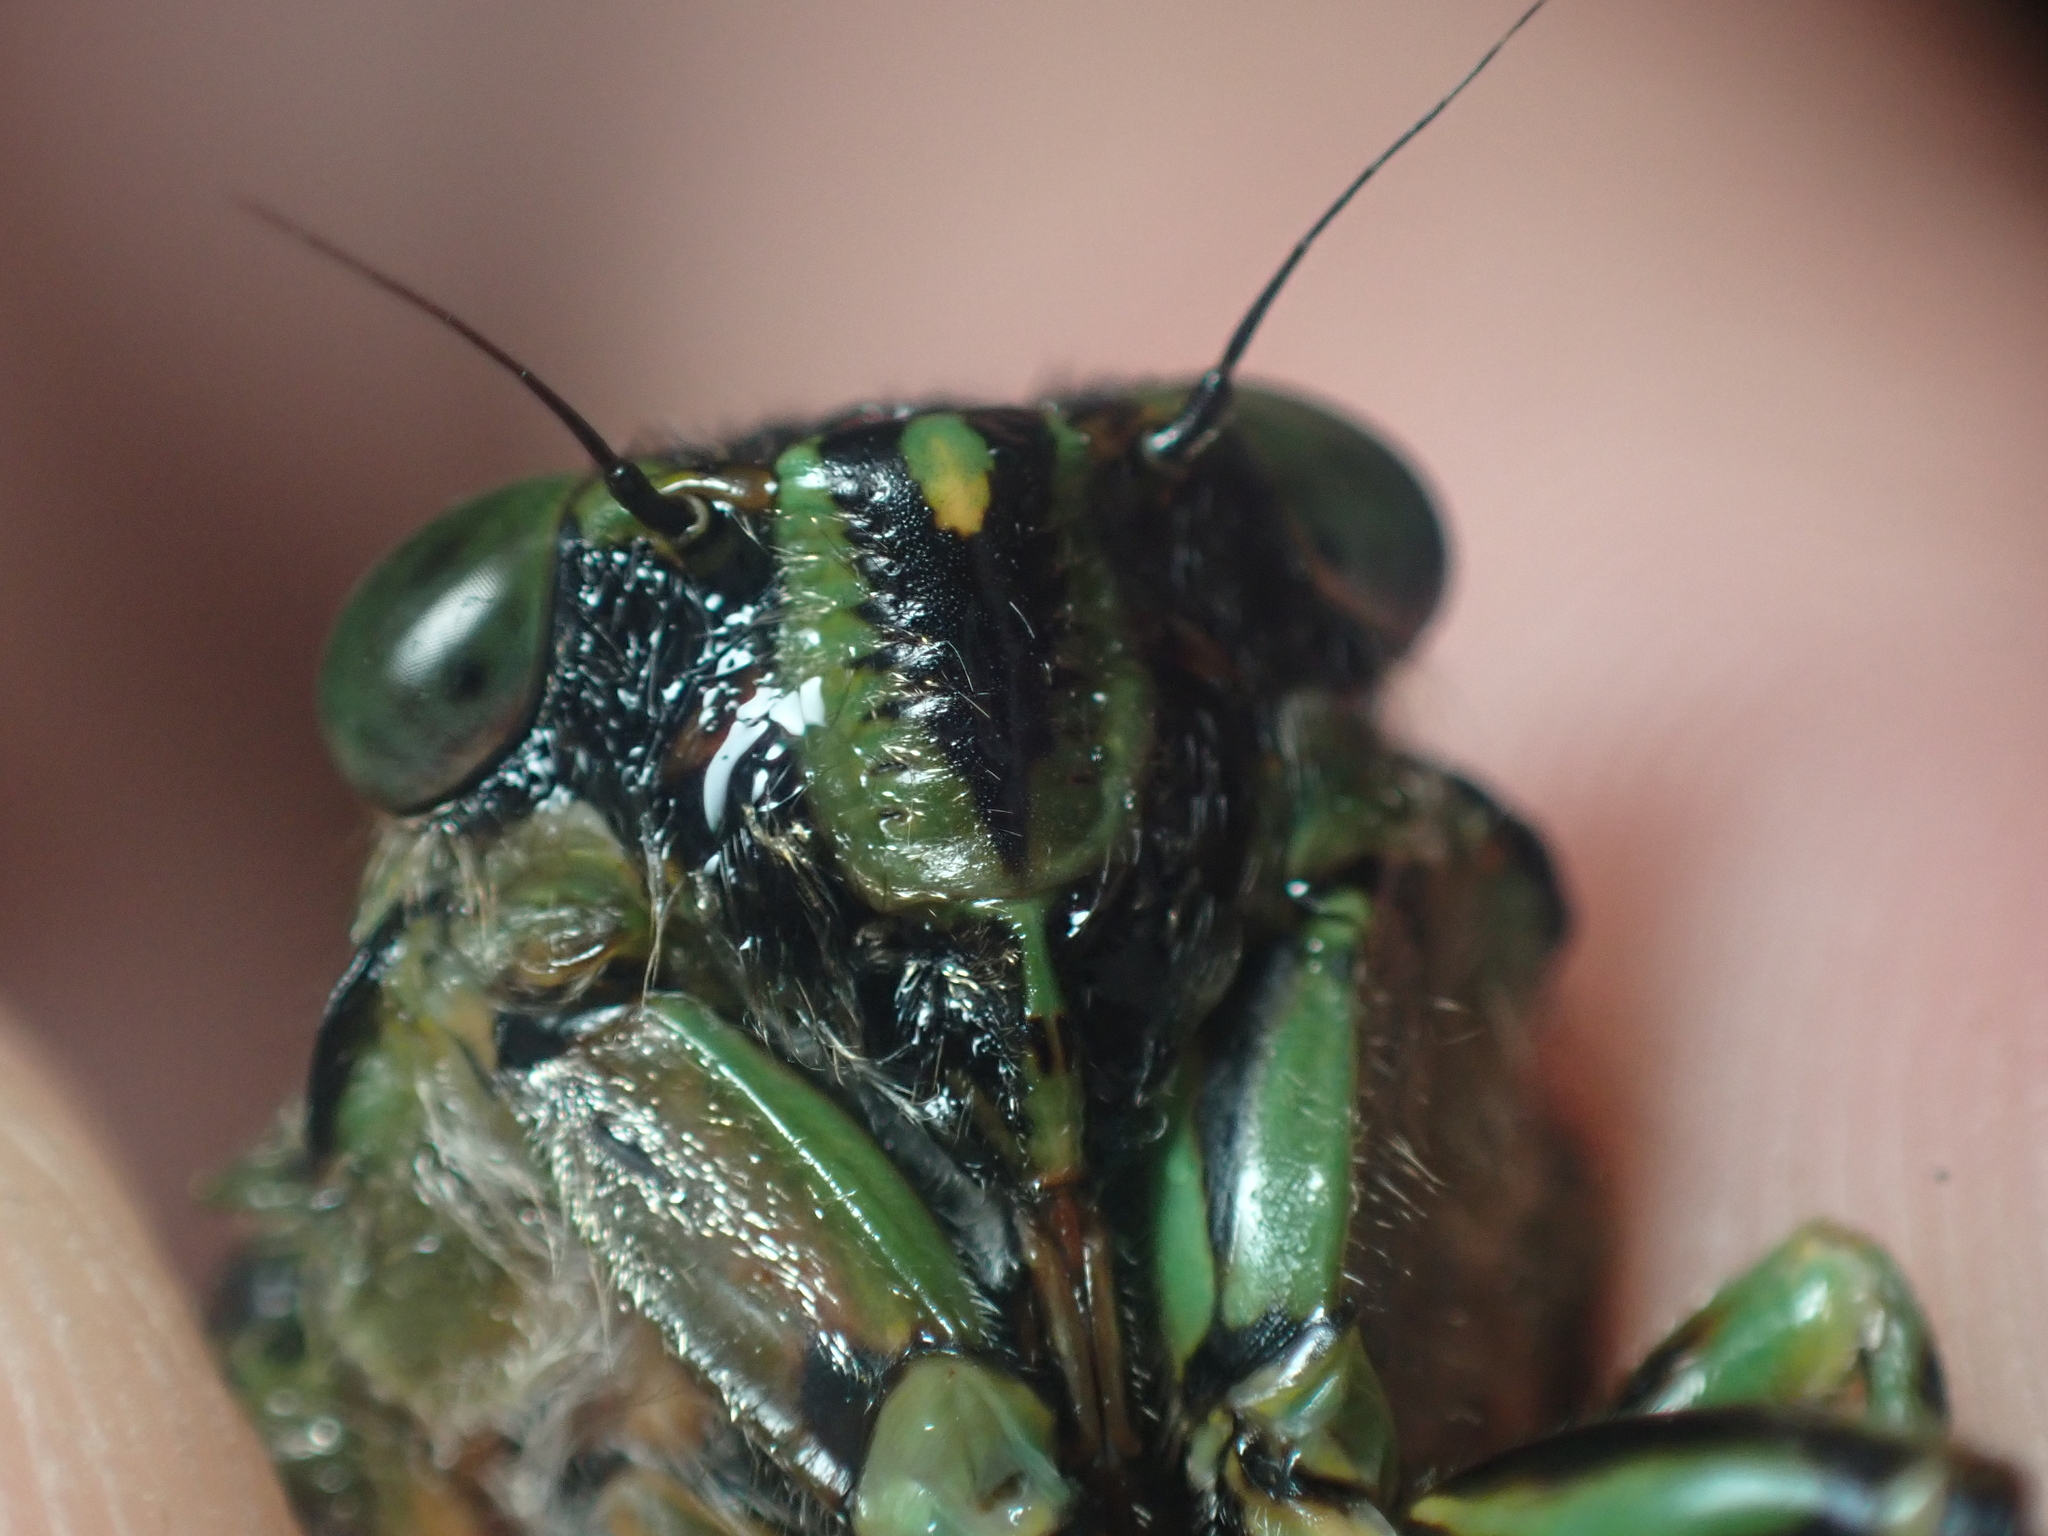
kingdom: Animalia
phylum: Arthropoda
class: Insecta
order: Hemiptera
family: Cicadidae
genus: Amphipsalta
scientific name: Amphipsalta zelandica
